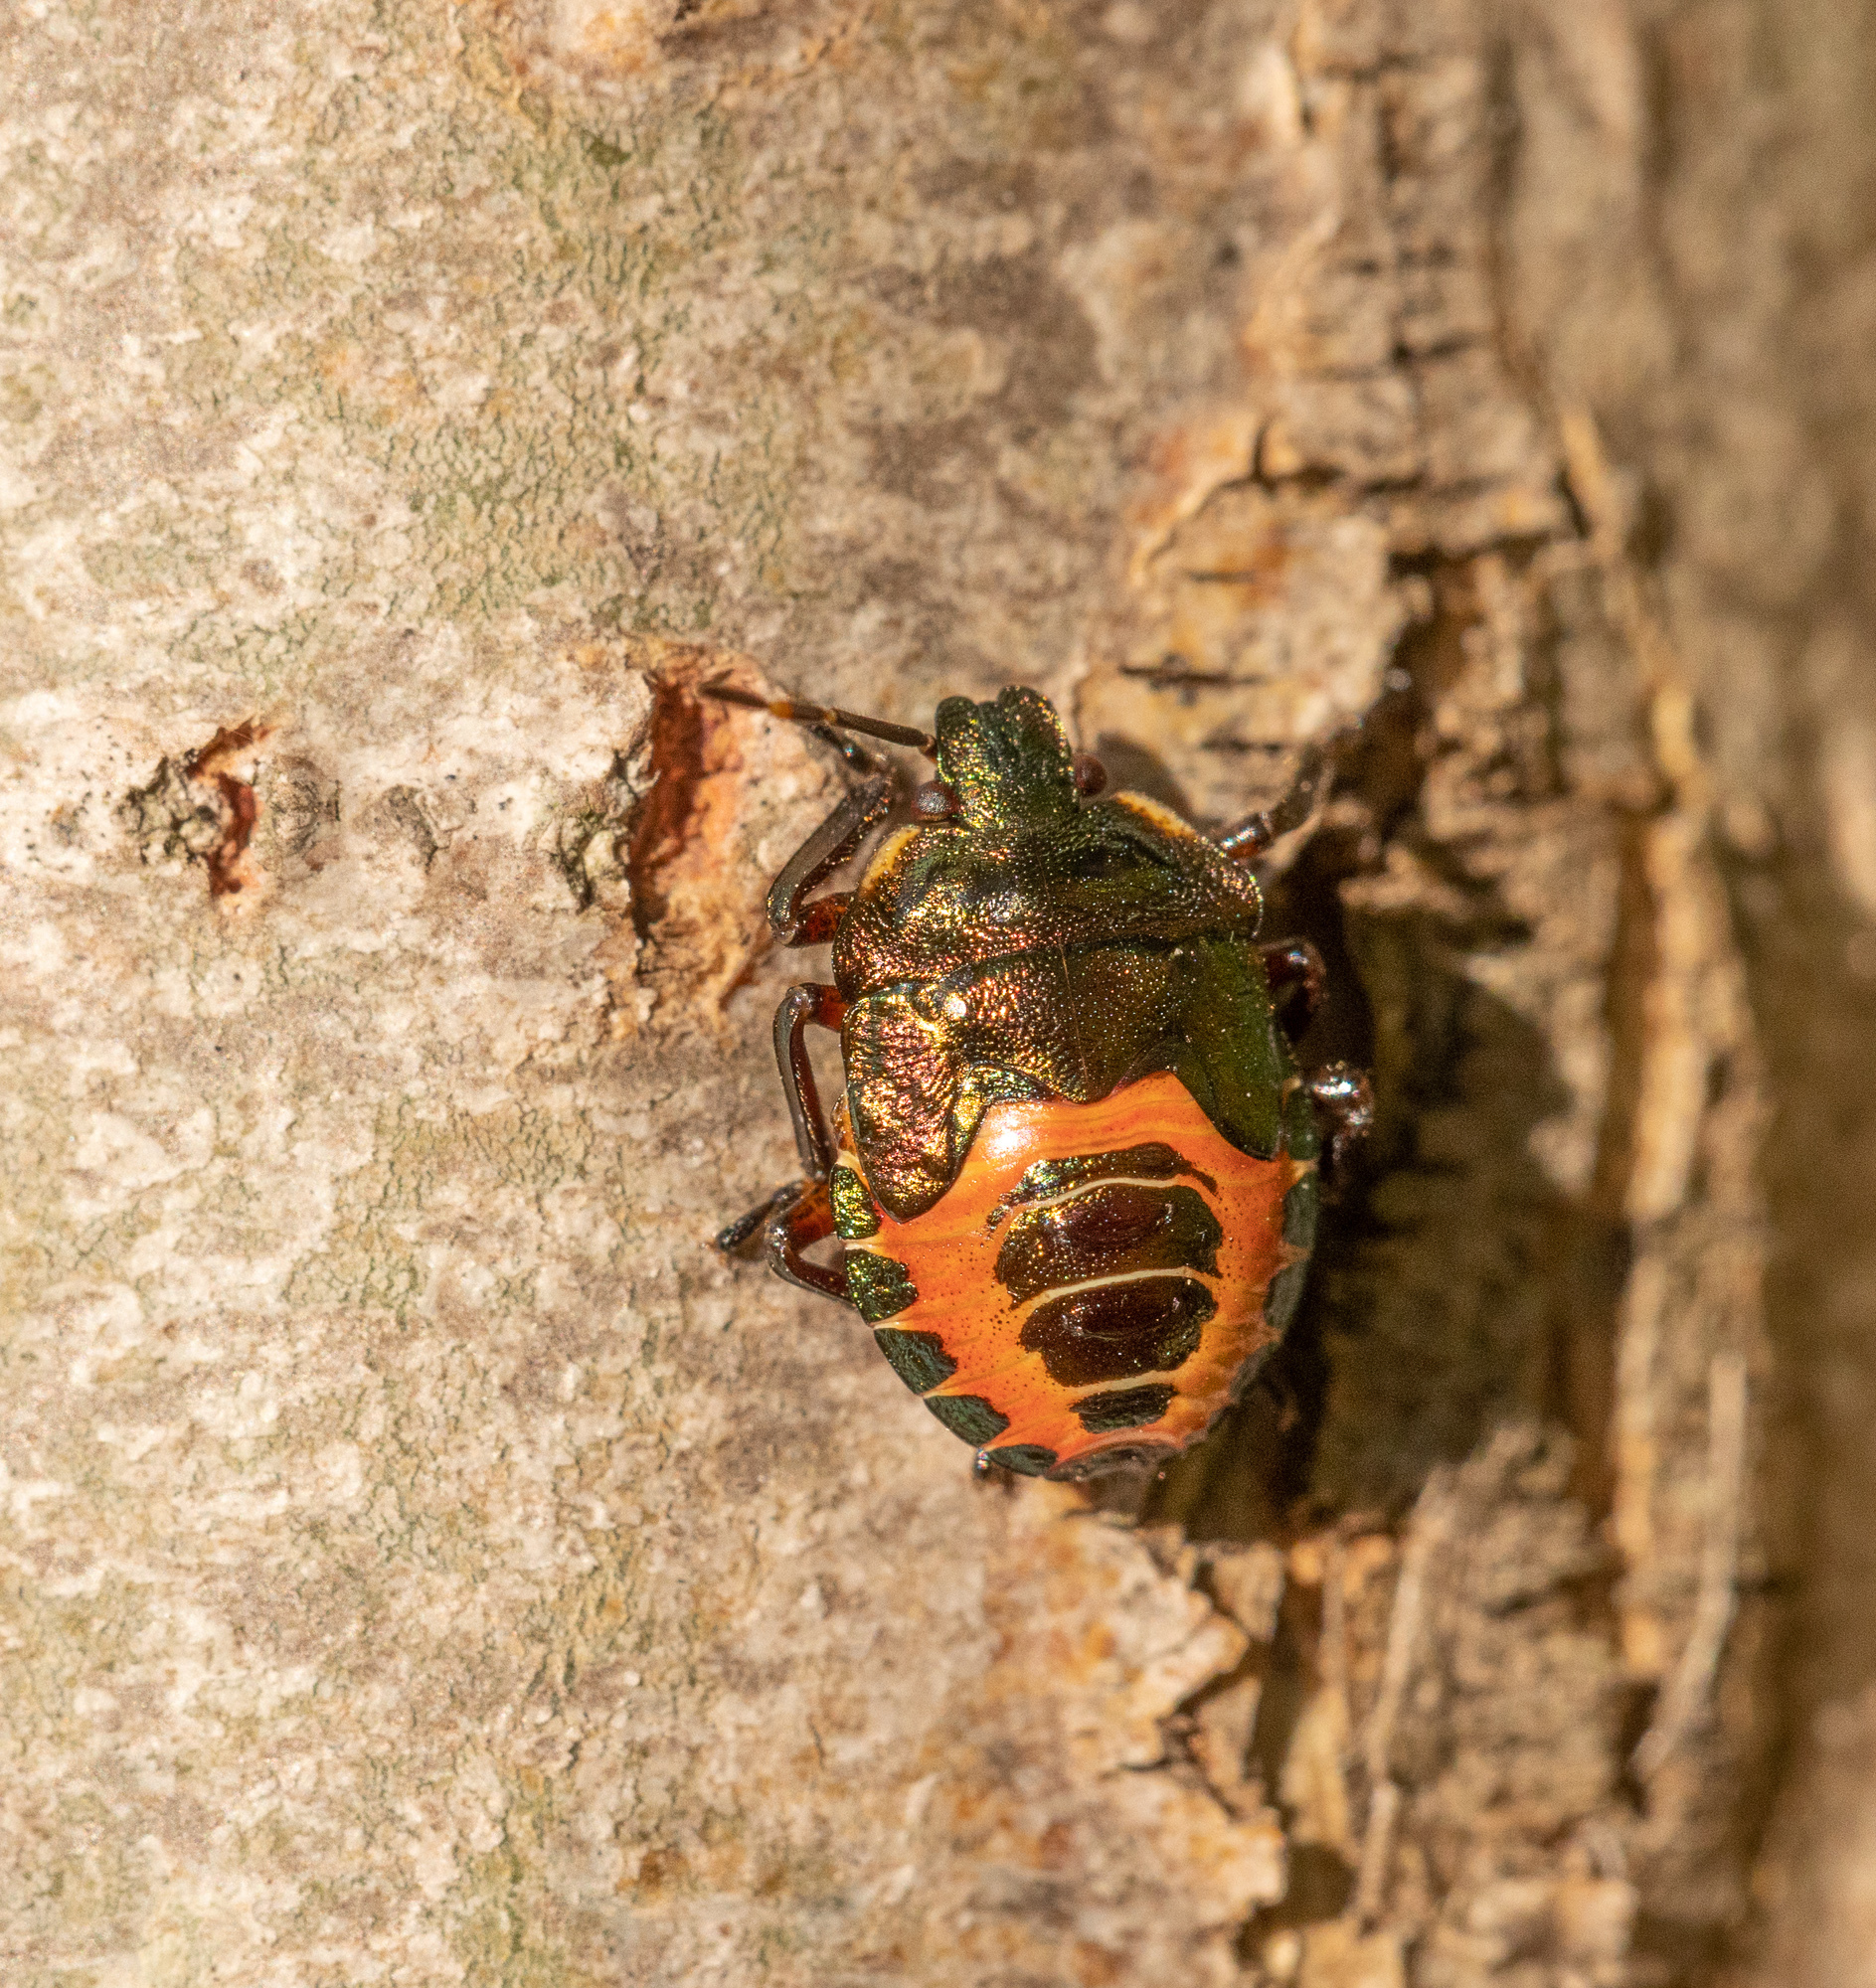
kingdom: Animalia
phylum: Arthropoda
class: Insecta
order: Hemiptera
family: Pentatomidae
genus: Troilus
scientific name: Troilus luridus
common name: Bronze shieldbug
